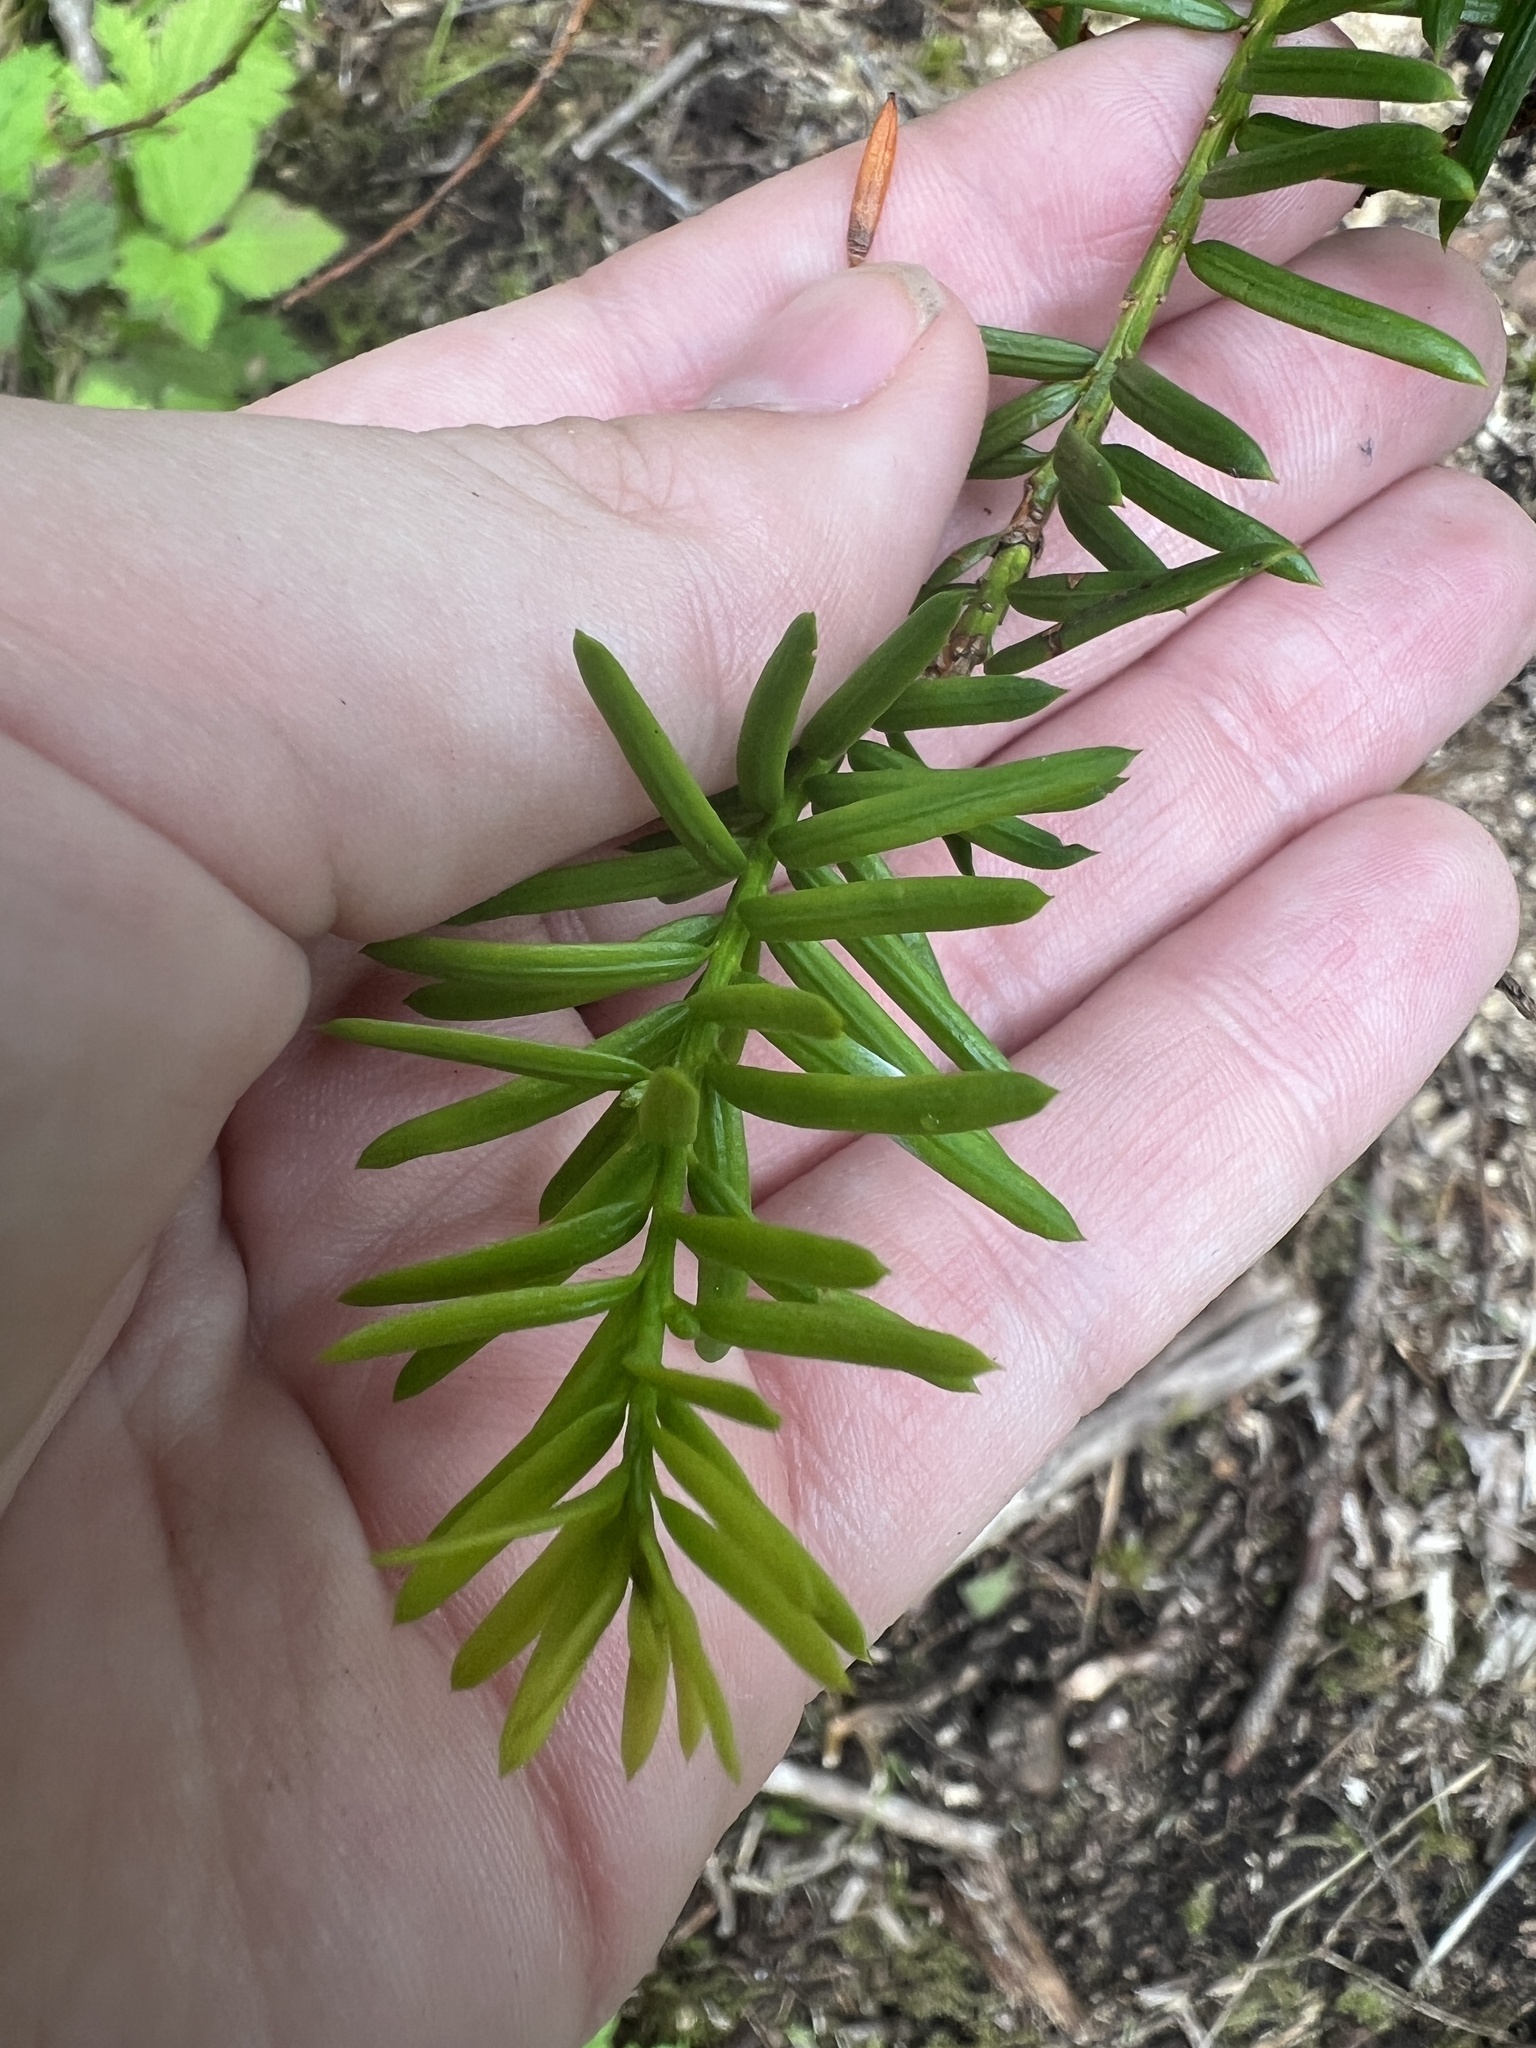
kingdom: Plantae
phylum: Tracheophyta
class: Pinopsida
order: Pinales
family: Taxaceae
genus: Taxus
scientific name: Taxus canadensis
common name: American yew
